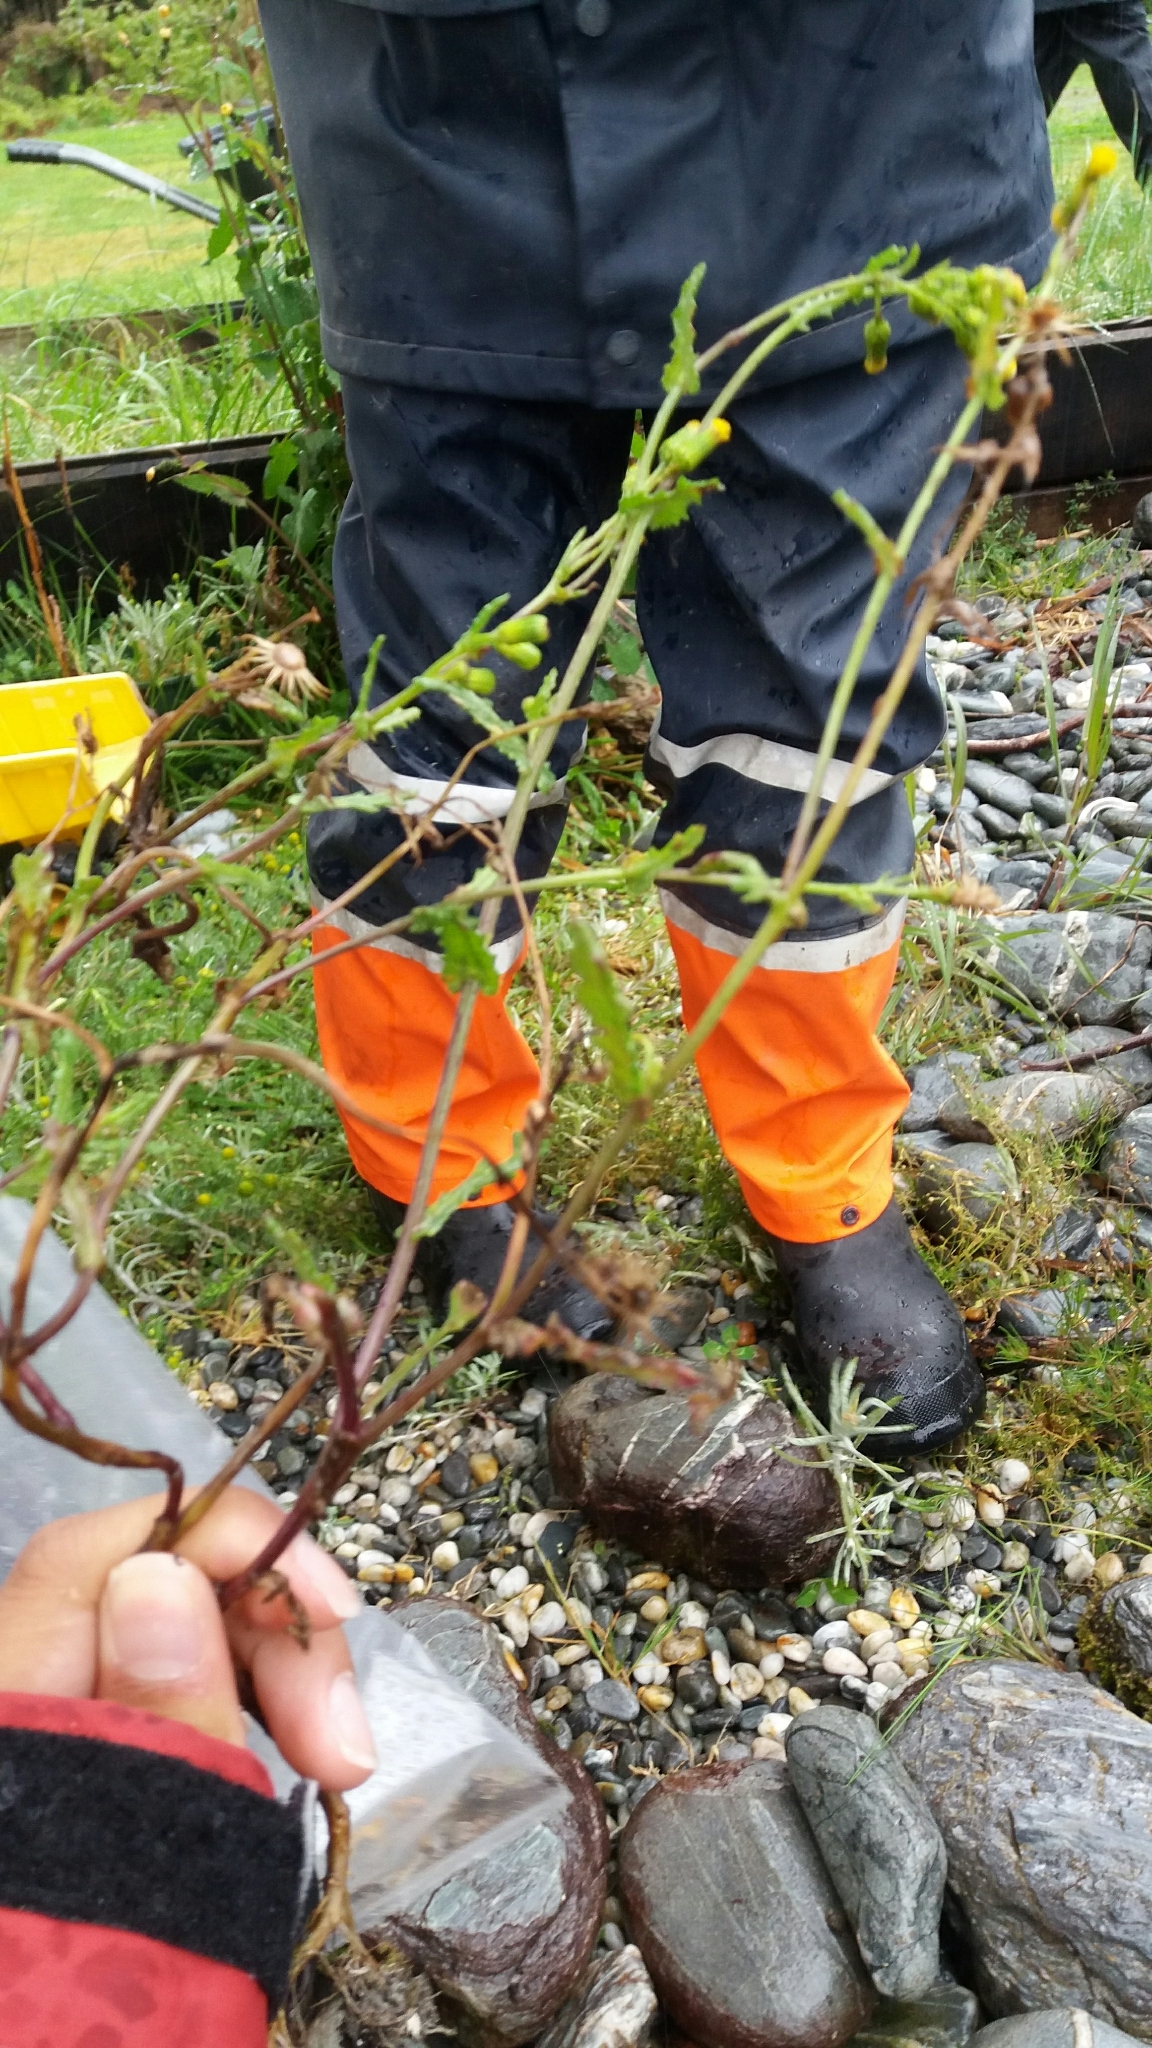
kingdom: Plantae
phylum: Tracheophyta
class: Magnoliopsida
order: Asterales
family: Asteraceae
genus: Senecio
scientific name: Senecio vulgaris
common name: Old-man-in-the-spring
